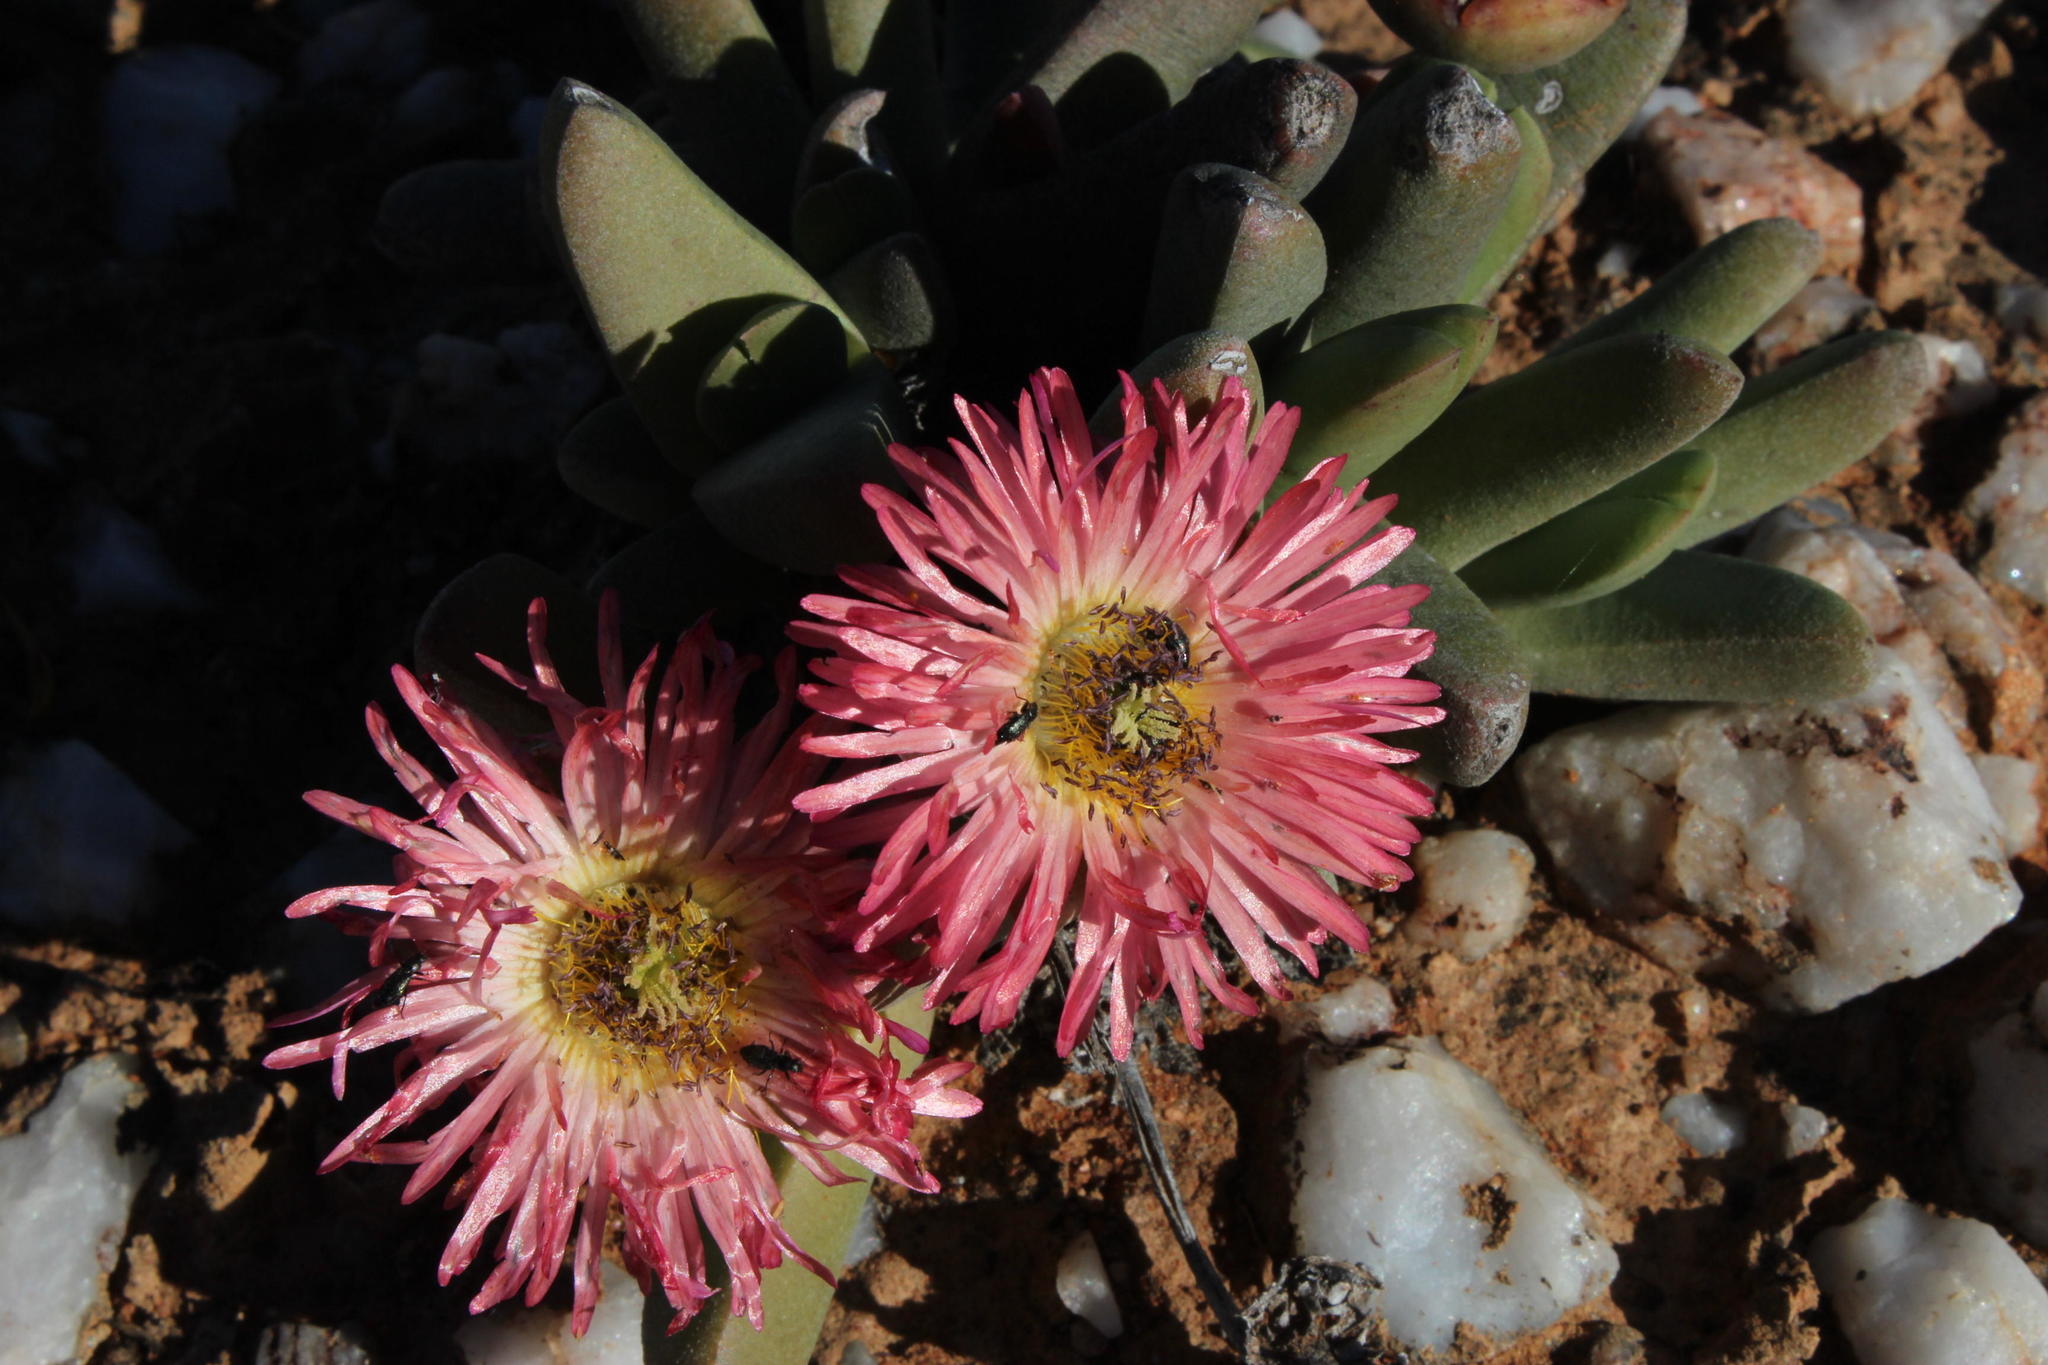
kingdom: Plantae
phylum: Tracheophyta
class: Magnoliopsida
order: Caryophyllales
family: Aizoaceae
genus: Cephalophyllum
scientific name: Cephalophyllum spissum
